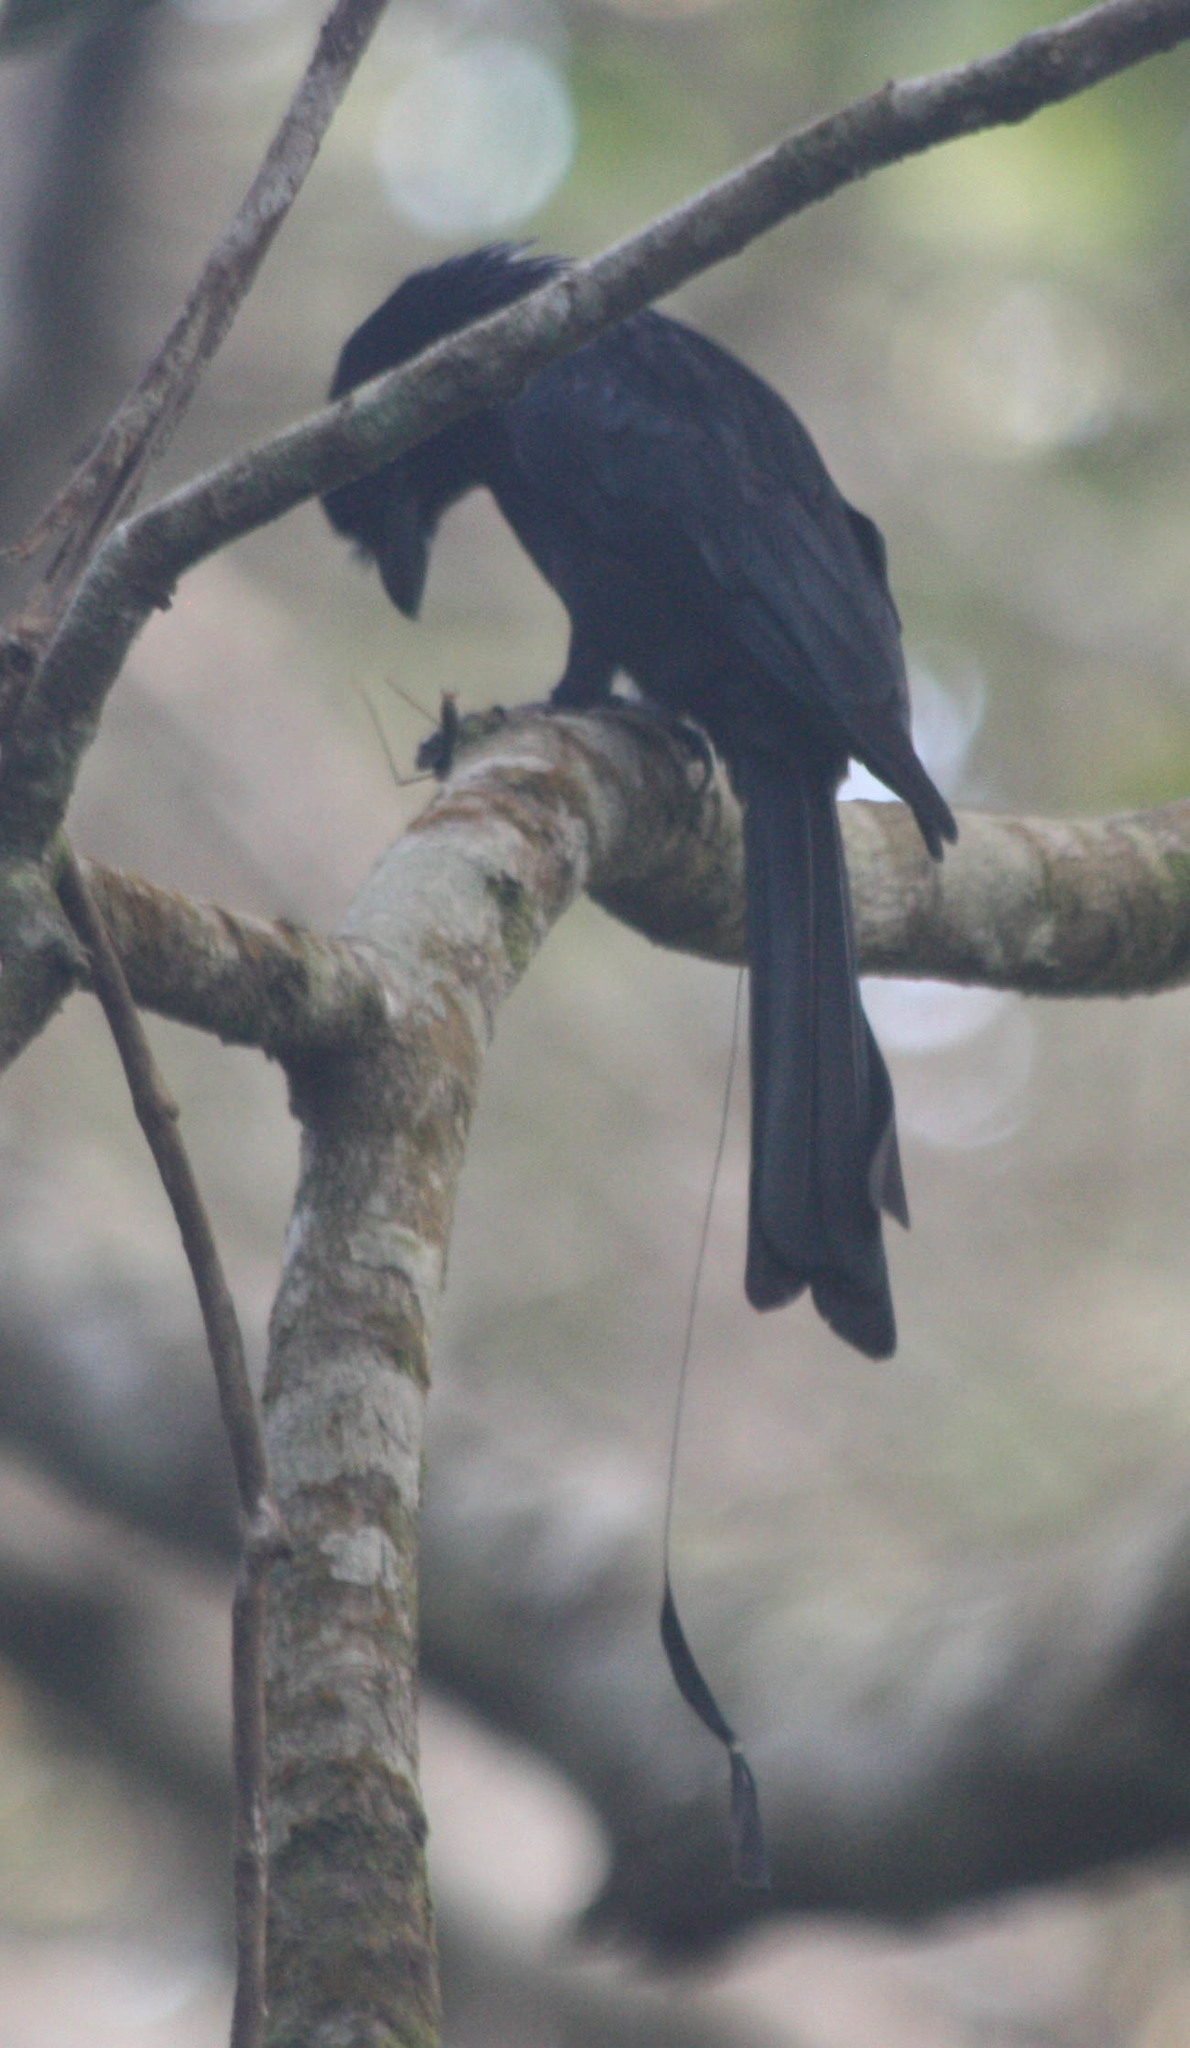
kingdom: Animalia
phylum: Chordata
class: Aves
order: Passeriformes
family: Dicruridae
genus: Dicrurus
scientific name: Dicrurus paradiseus
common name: Greater racket-tailed drongo
